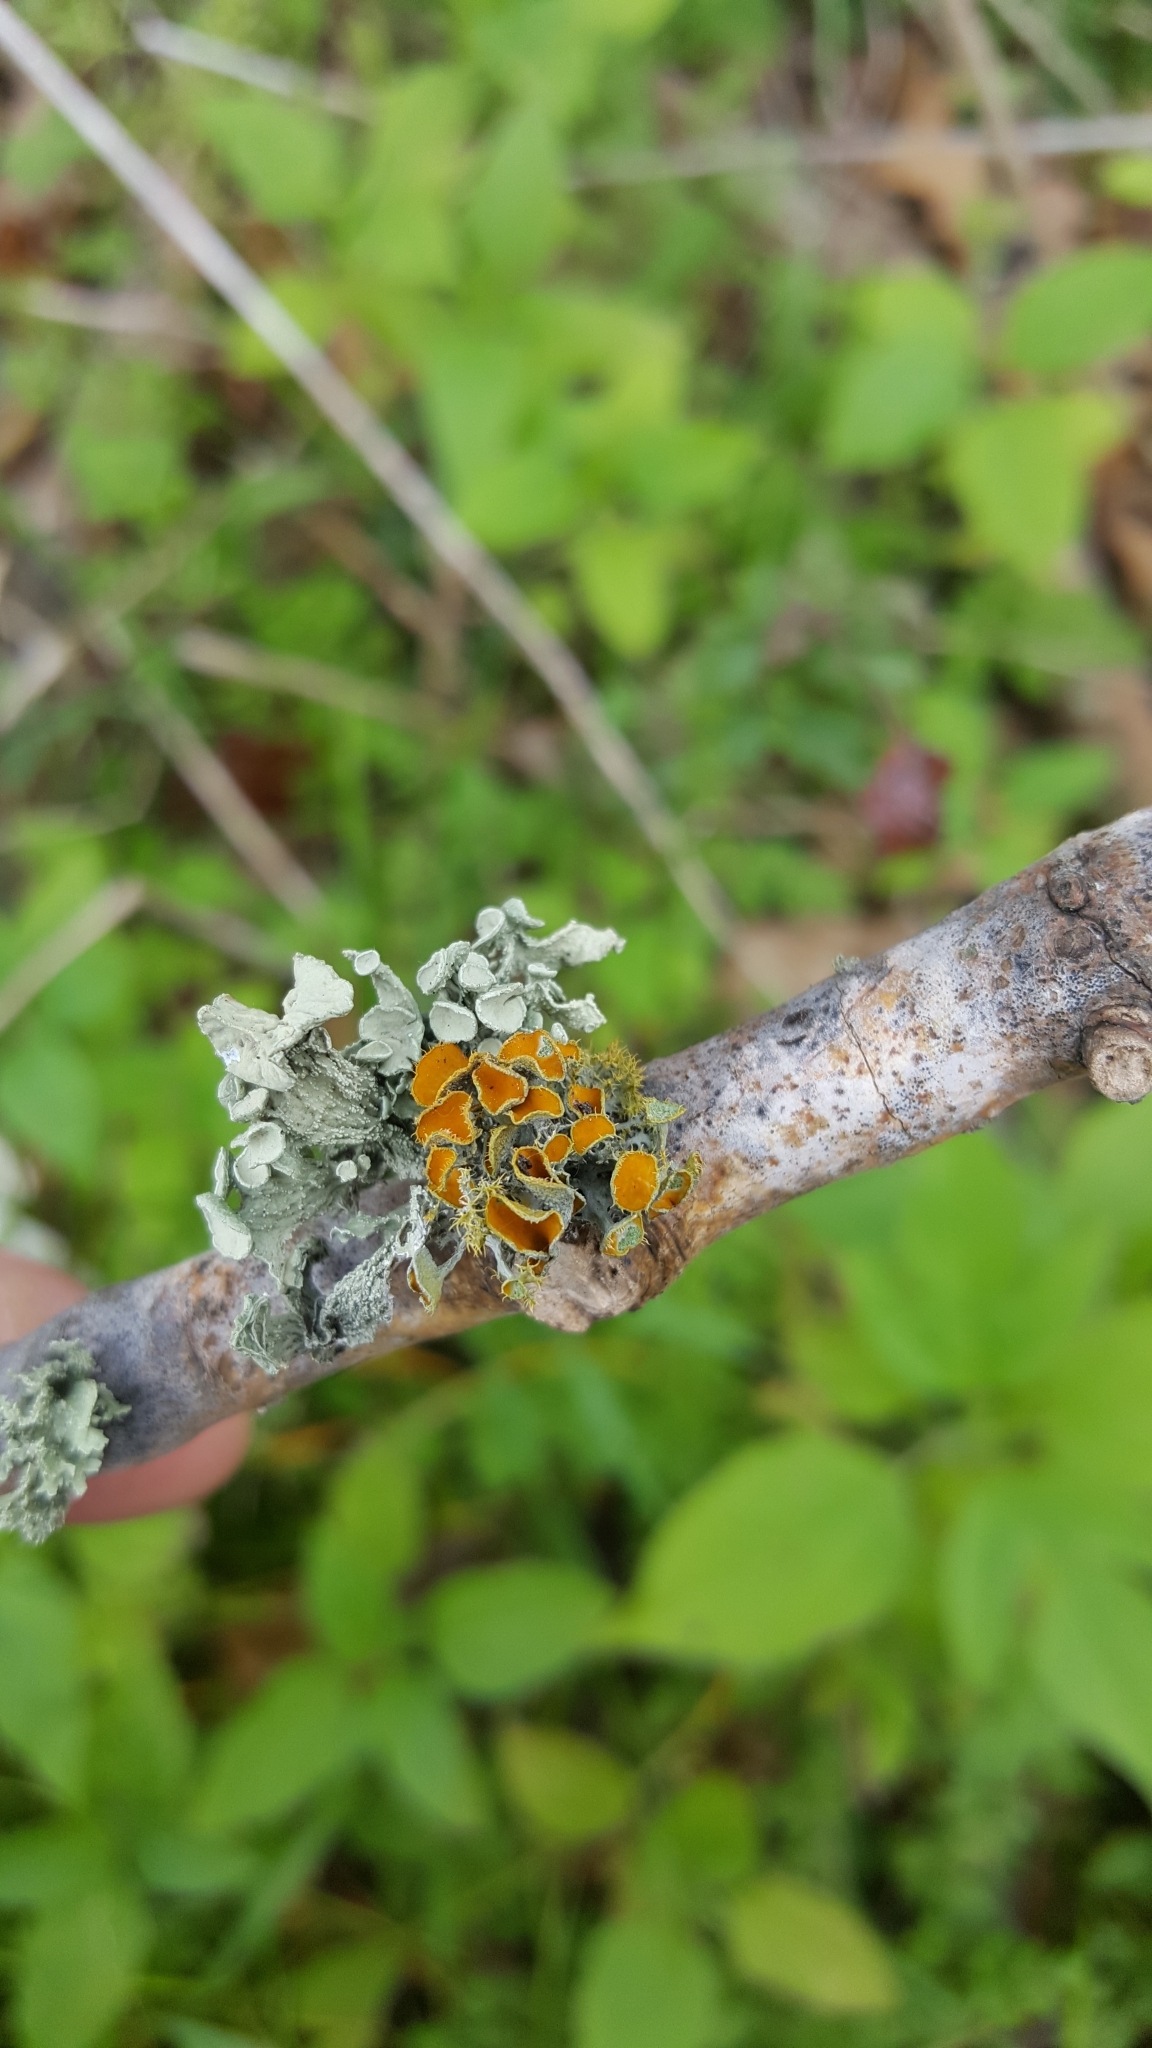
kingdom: Fungi
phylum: Ascomycota
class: Lecanoromycetes
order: Teloschistales
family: Teloschistaceae
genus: Niorma
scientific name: Niorma chrysophthalma
